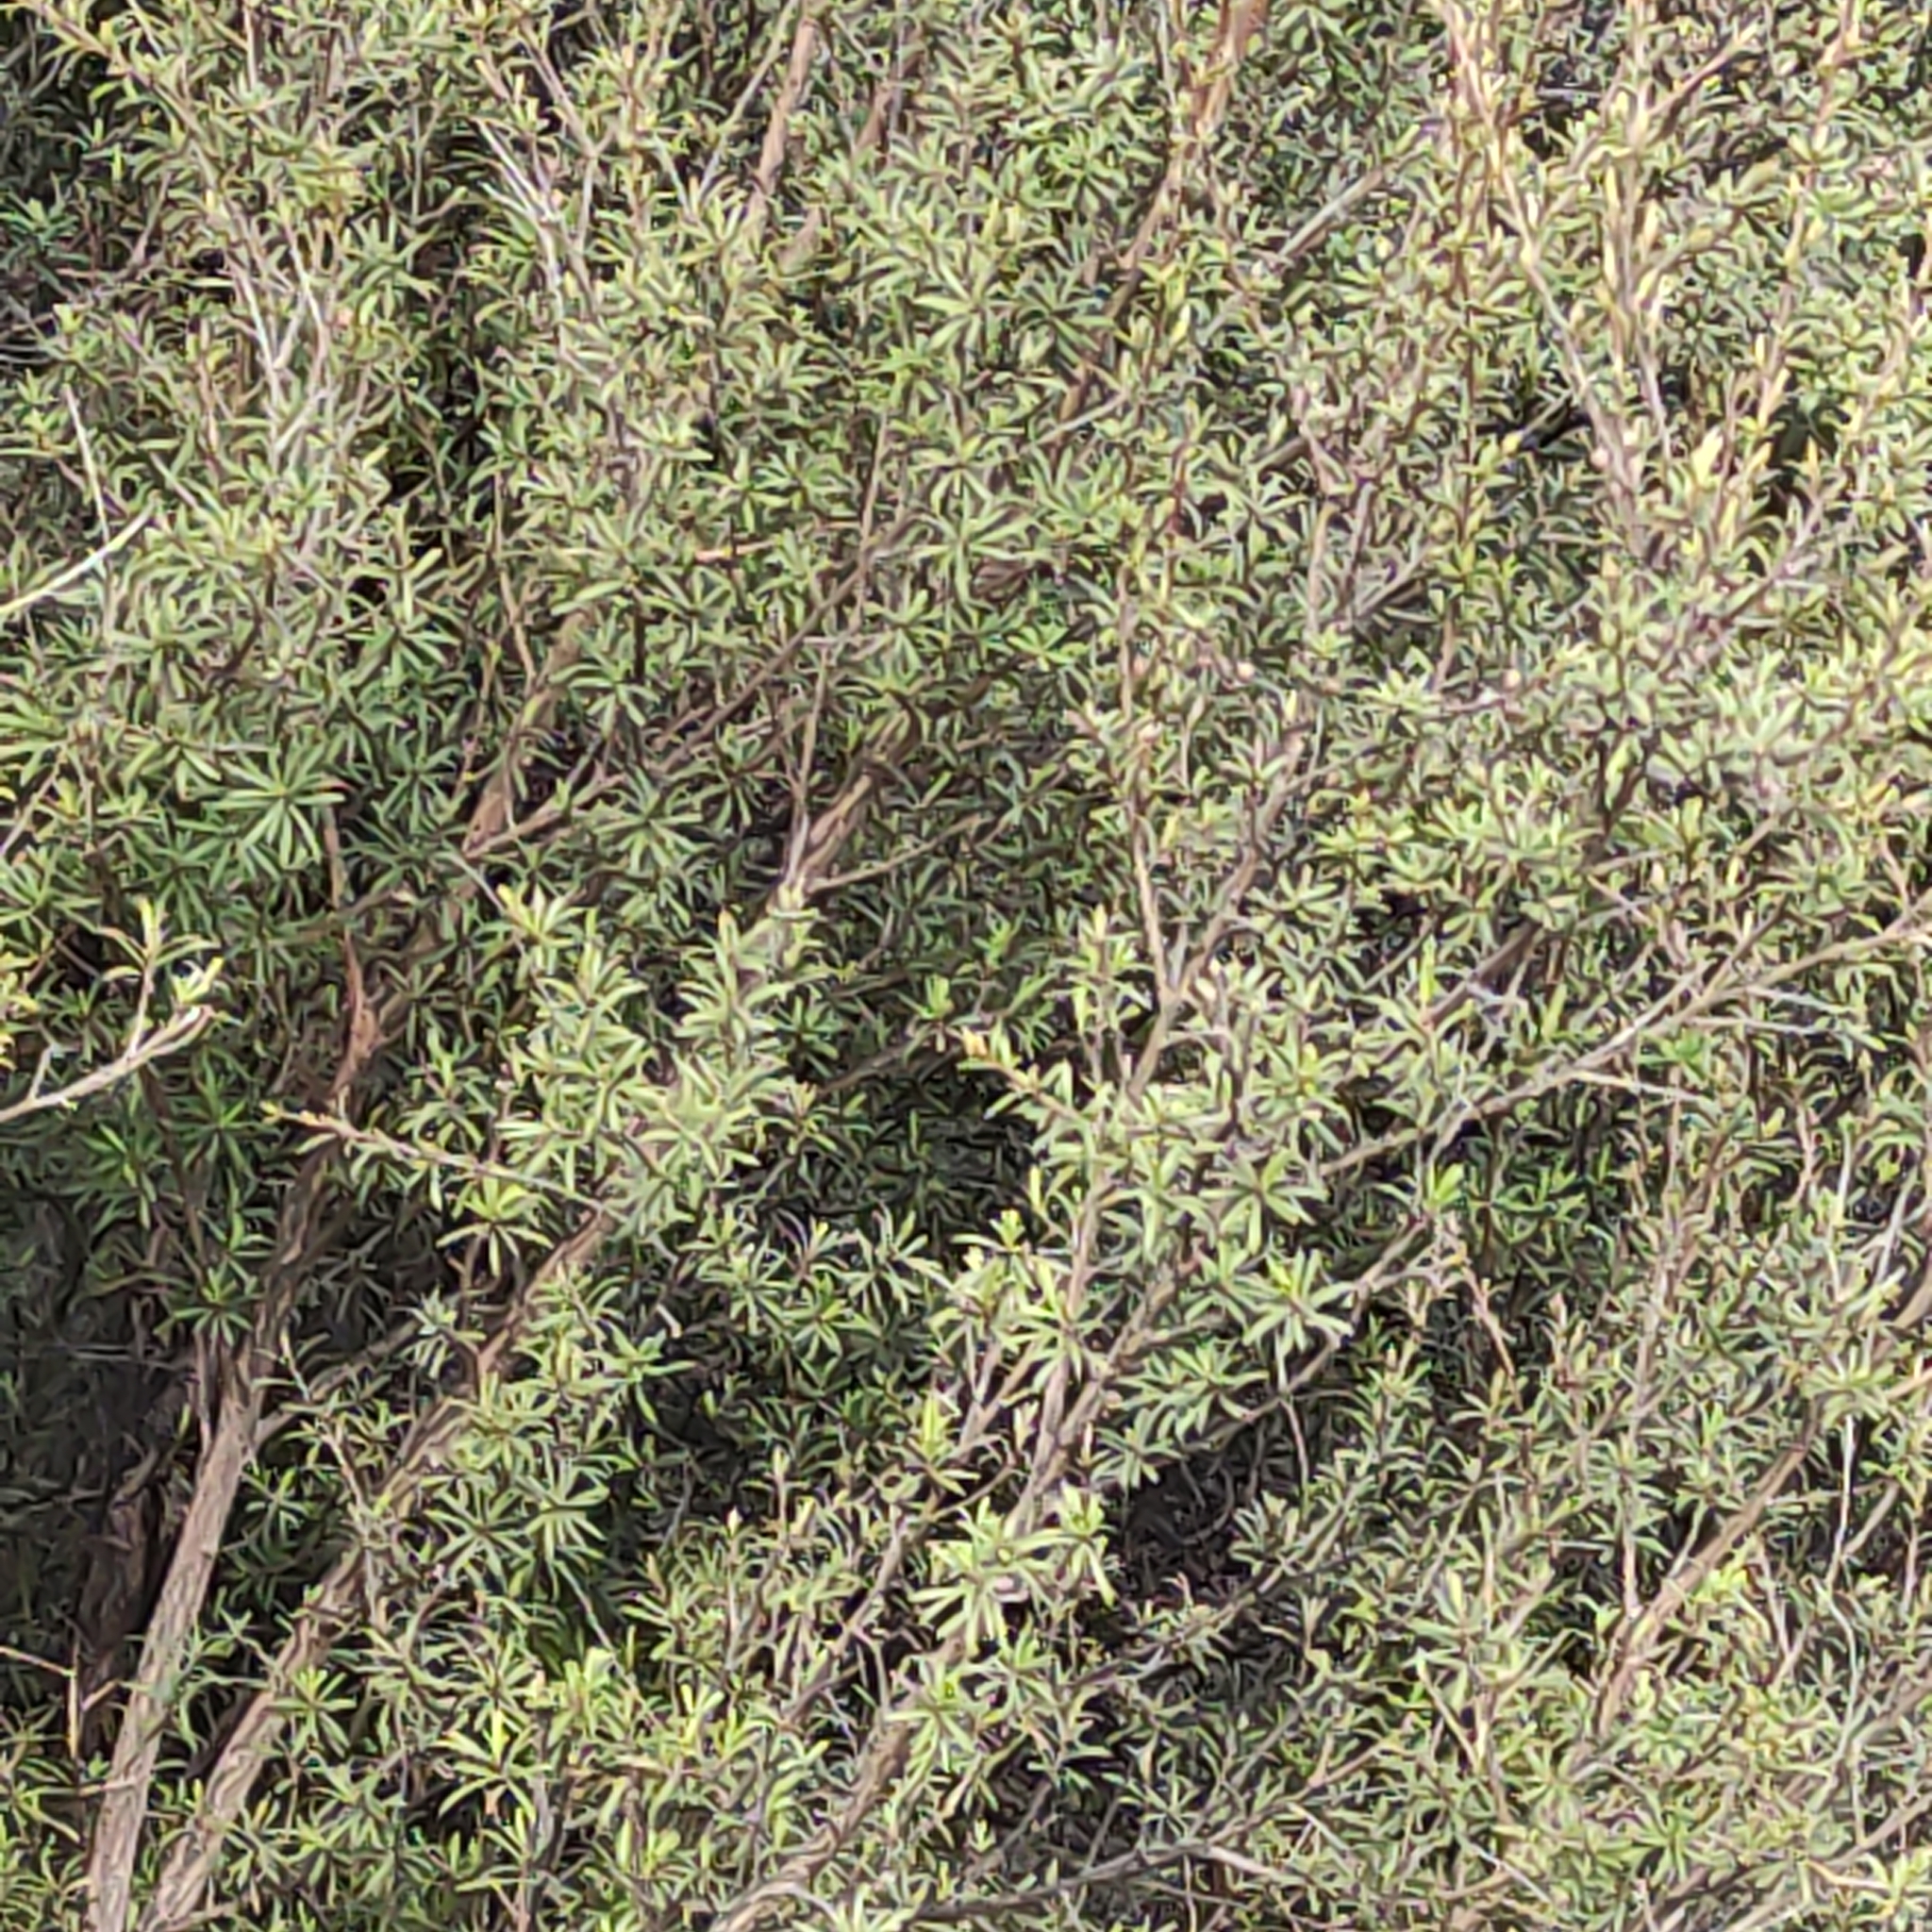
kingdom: Plantae
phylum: Tracheophyta
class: Magnoliopsida
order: Myrtales
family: Myrtaceae
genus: Kunzea
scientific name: Kunzea robusta
